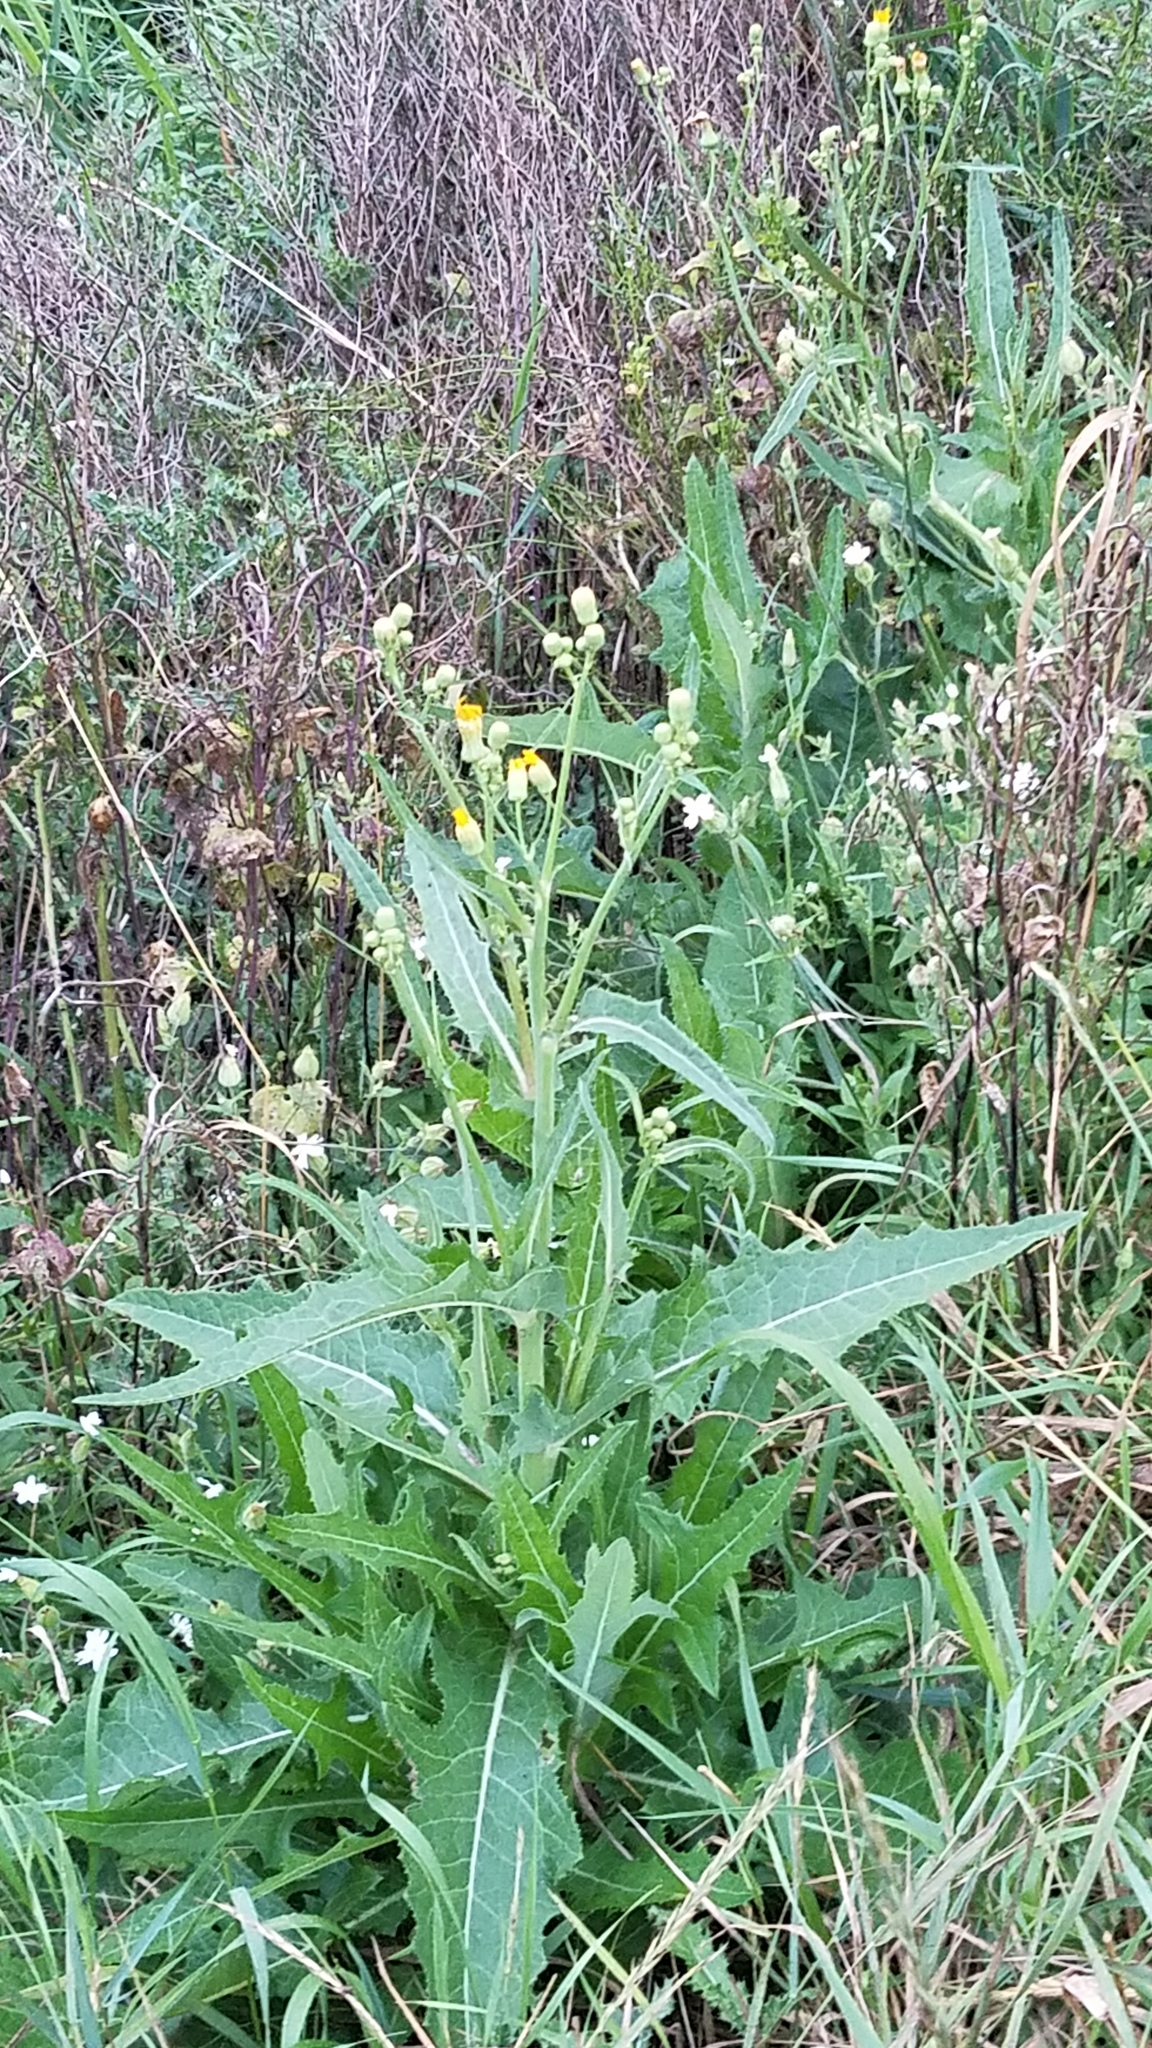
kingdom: Plantae
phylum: Tracheophyta
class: Magnoliopsida
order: Asterales
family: Asteraceae
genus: Sonchus
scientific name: Sonchus arvensis
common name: Perennial sow-thistle
